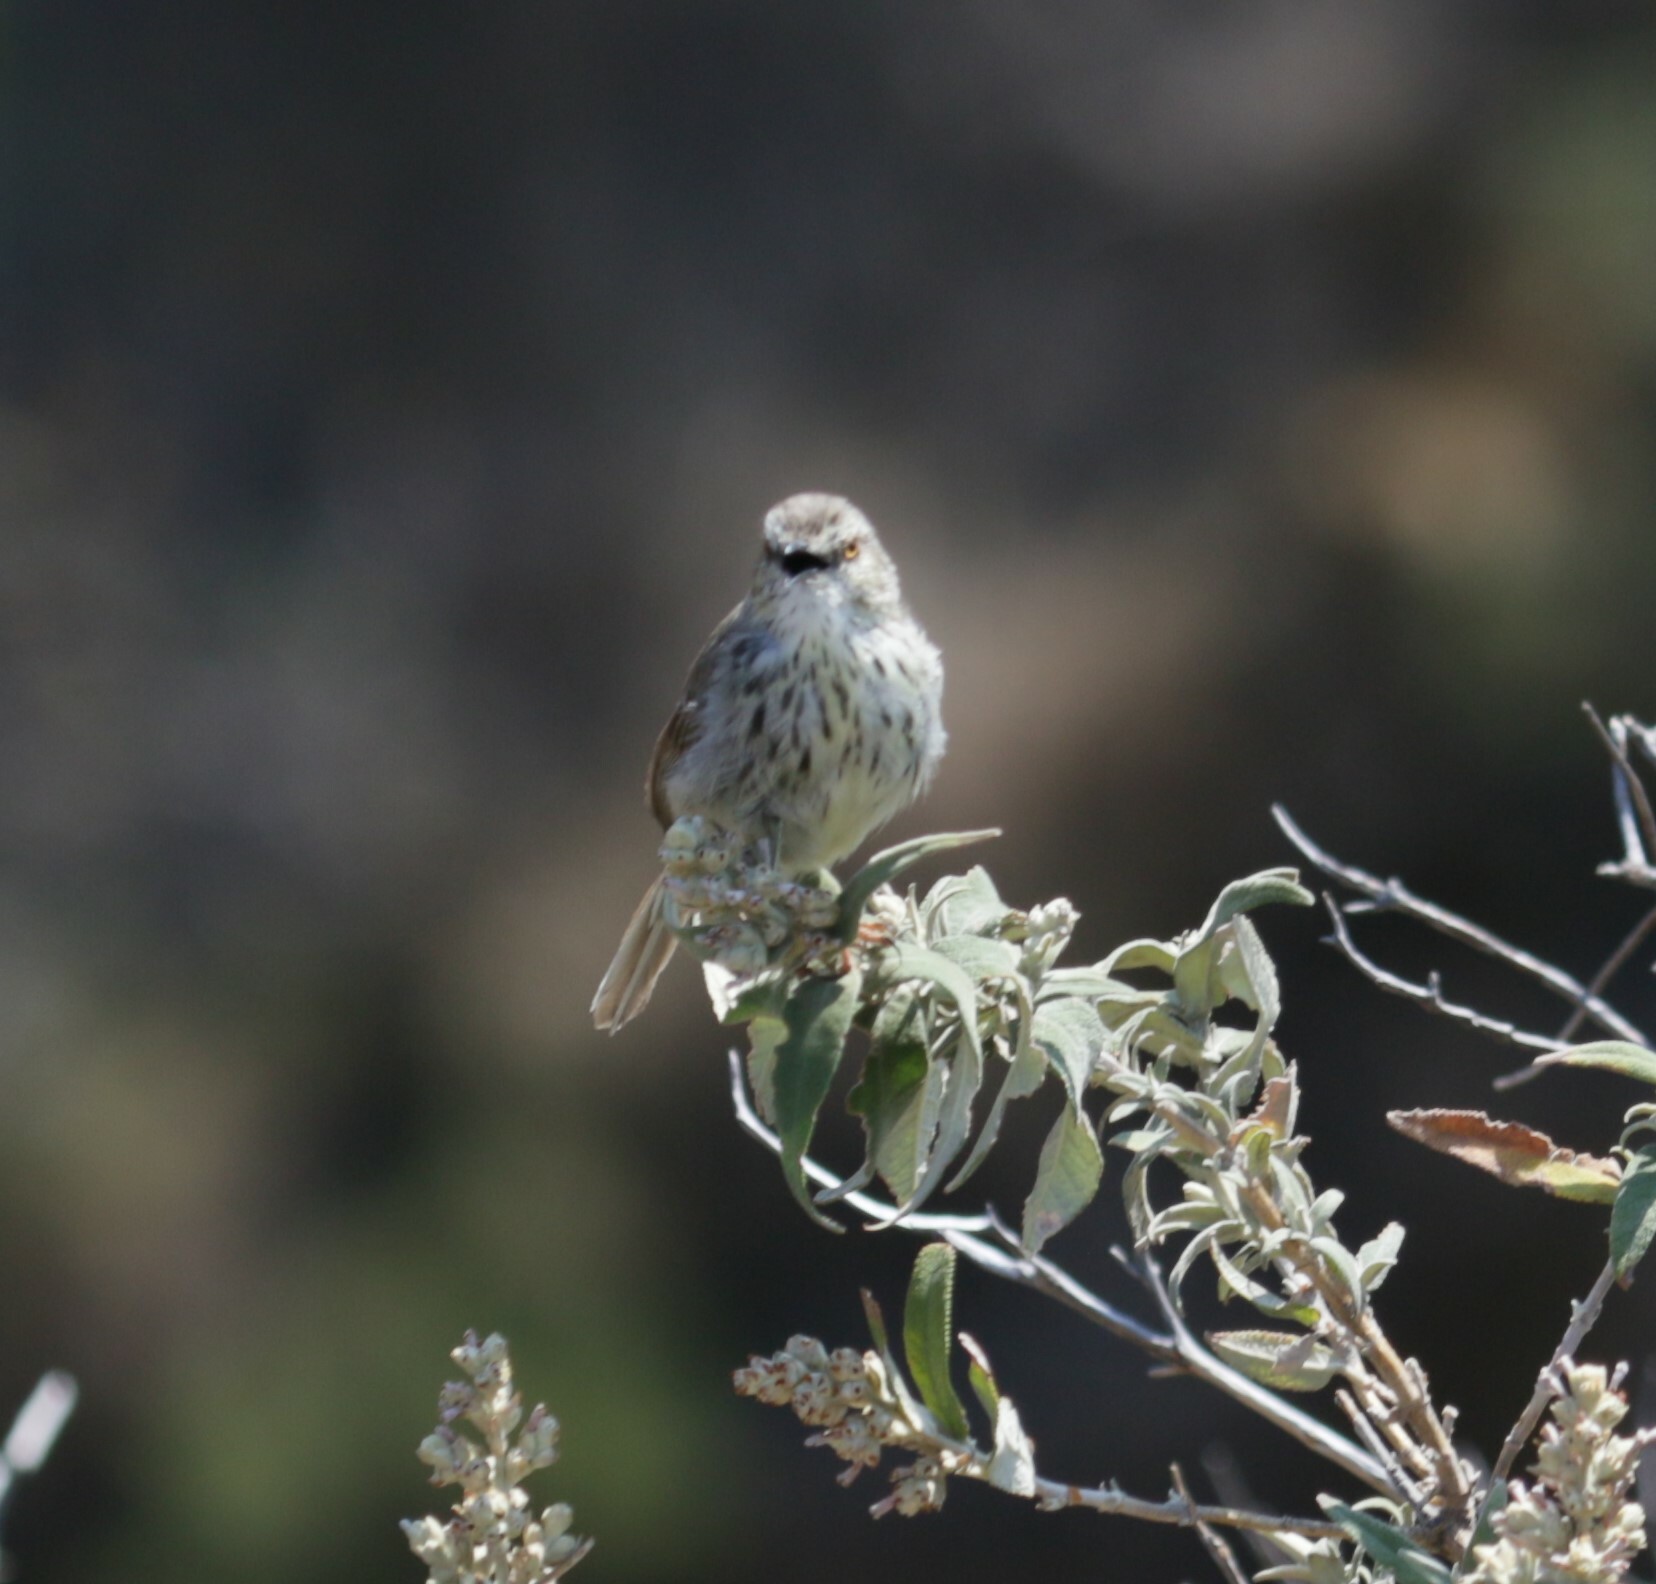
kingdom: Animalia
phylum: Chordata
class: Aves
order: Passeriformes
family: Cisticolidae
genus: Prinia
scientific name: Prinia hypoxantha
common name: Drakensberg prinia
